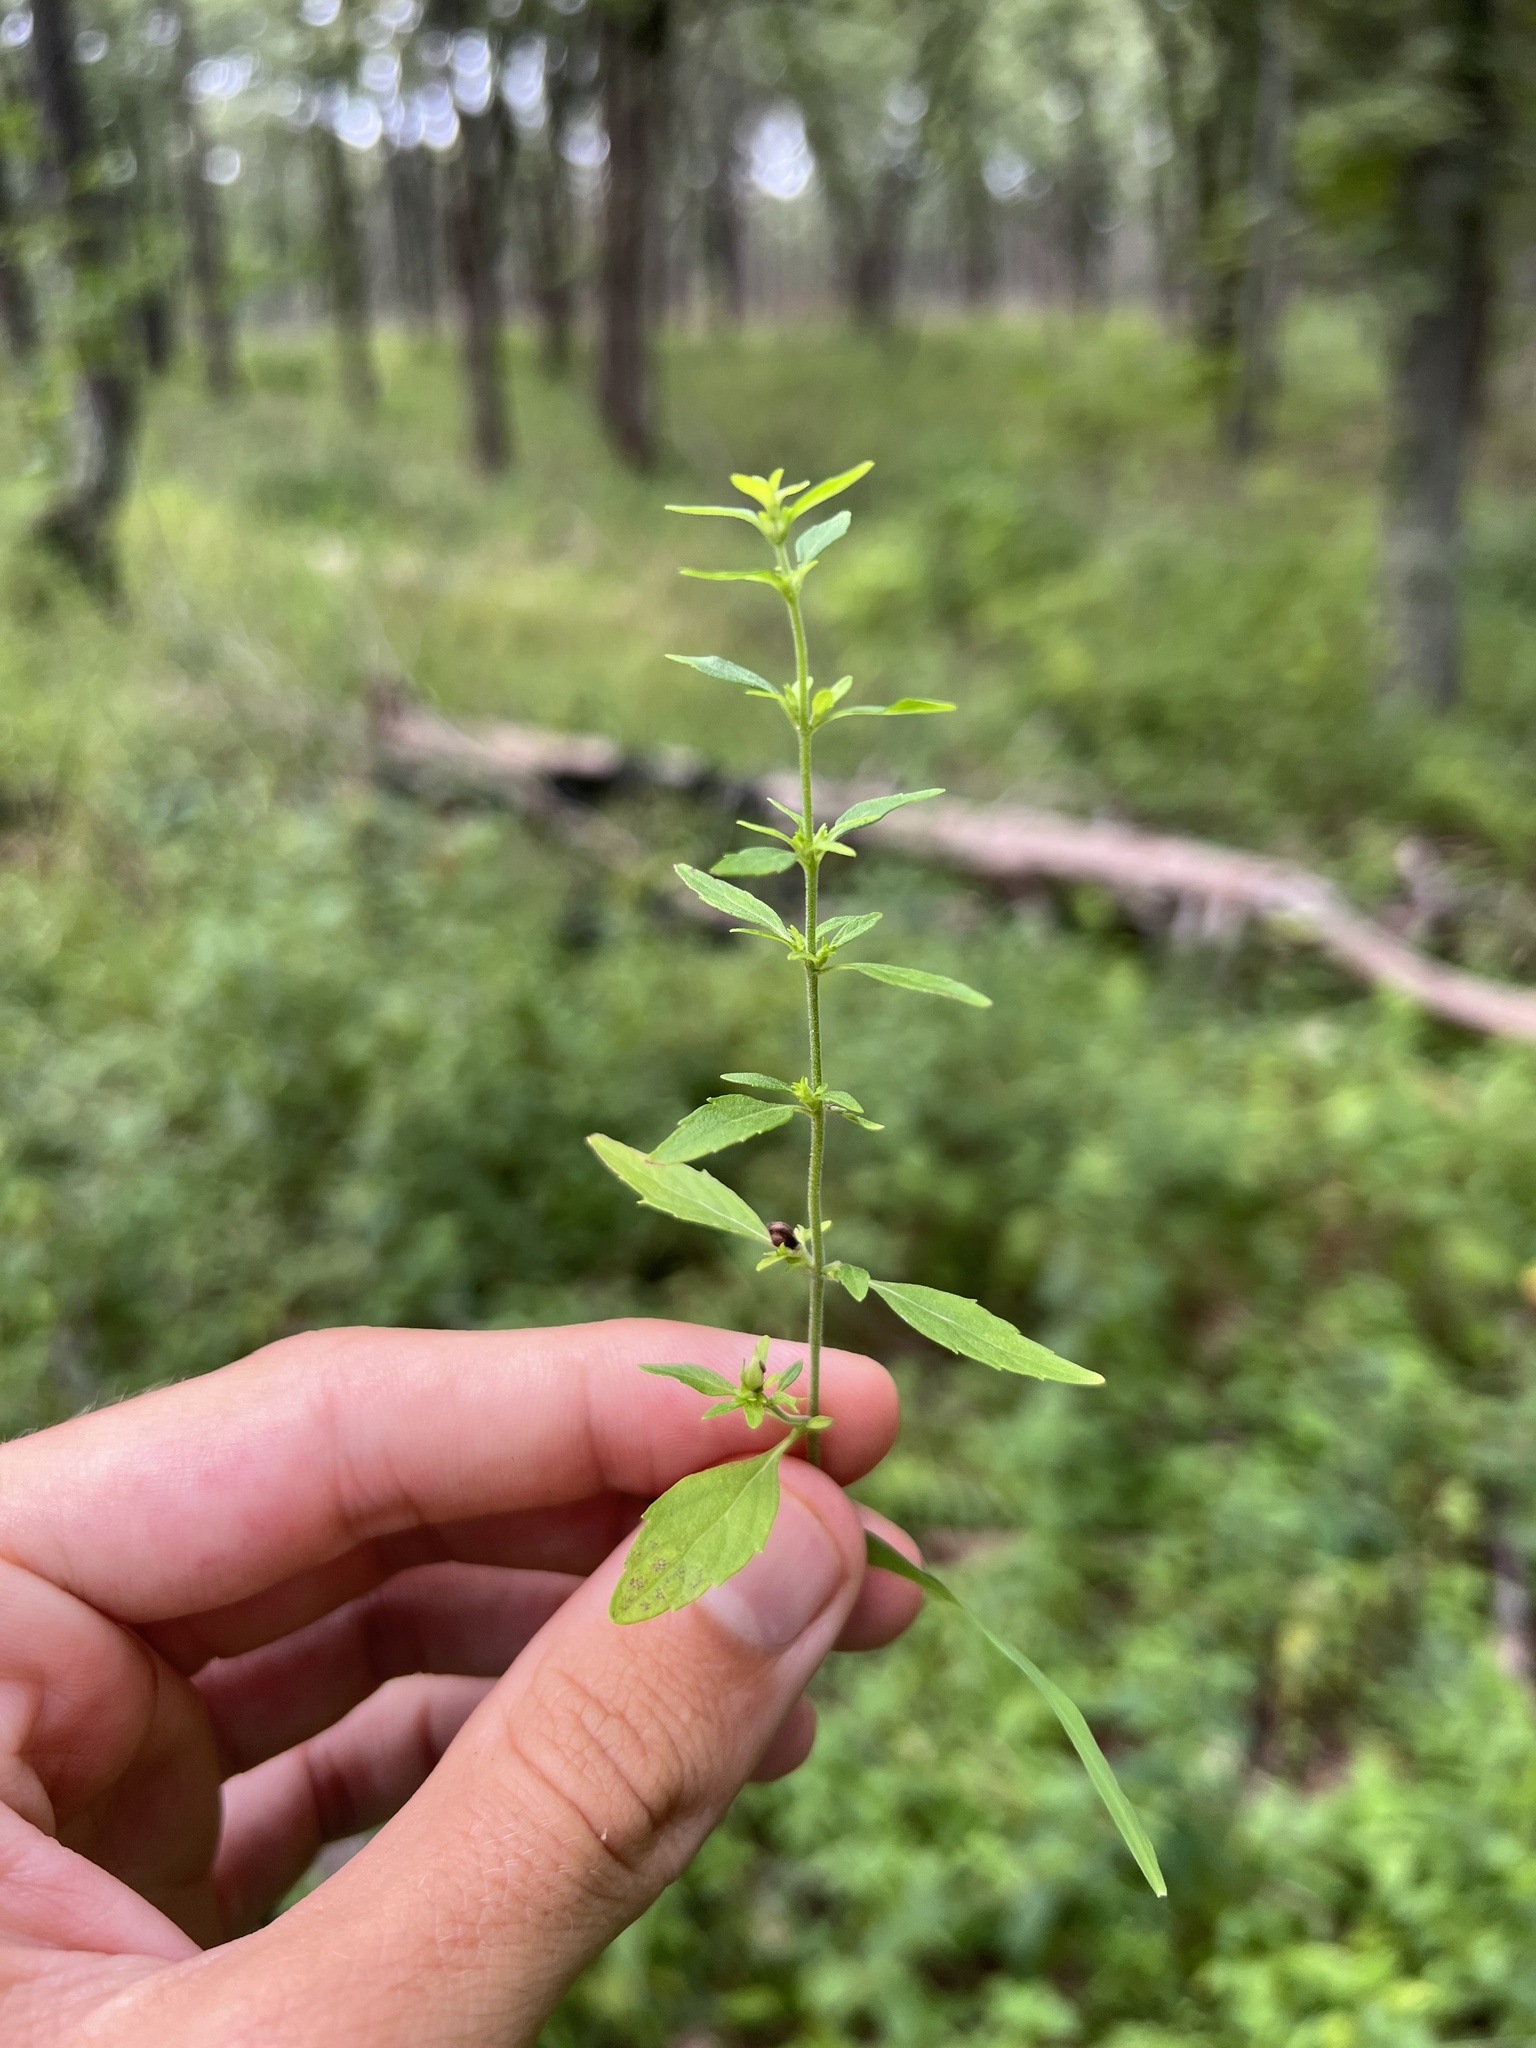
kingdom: Plantae
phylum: Tracheophyta
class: Magnoliopsida
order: Lamiales
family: Lamiaceae
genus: Hedeoma
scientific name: Hedeoma pulegioides
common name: American false pennyroyal
